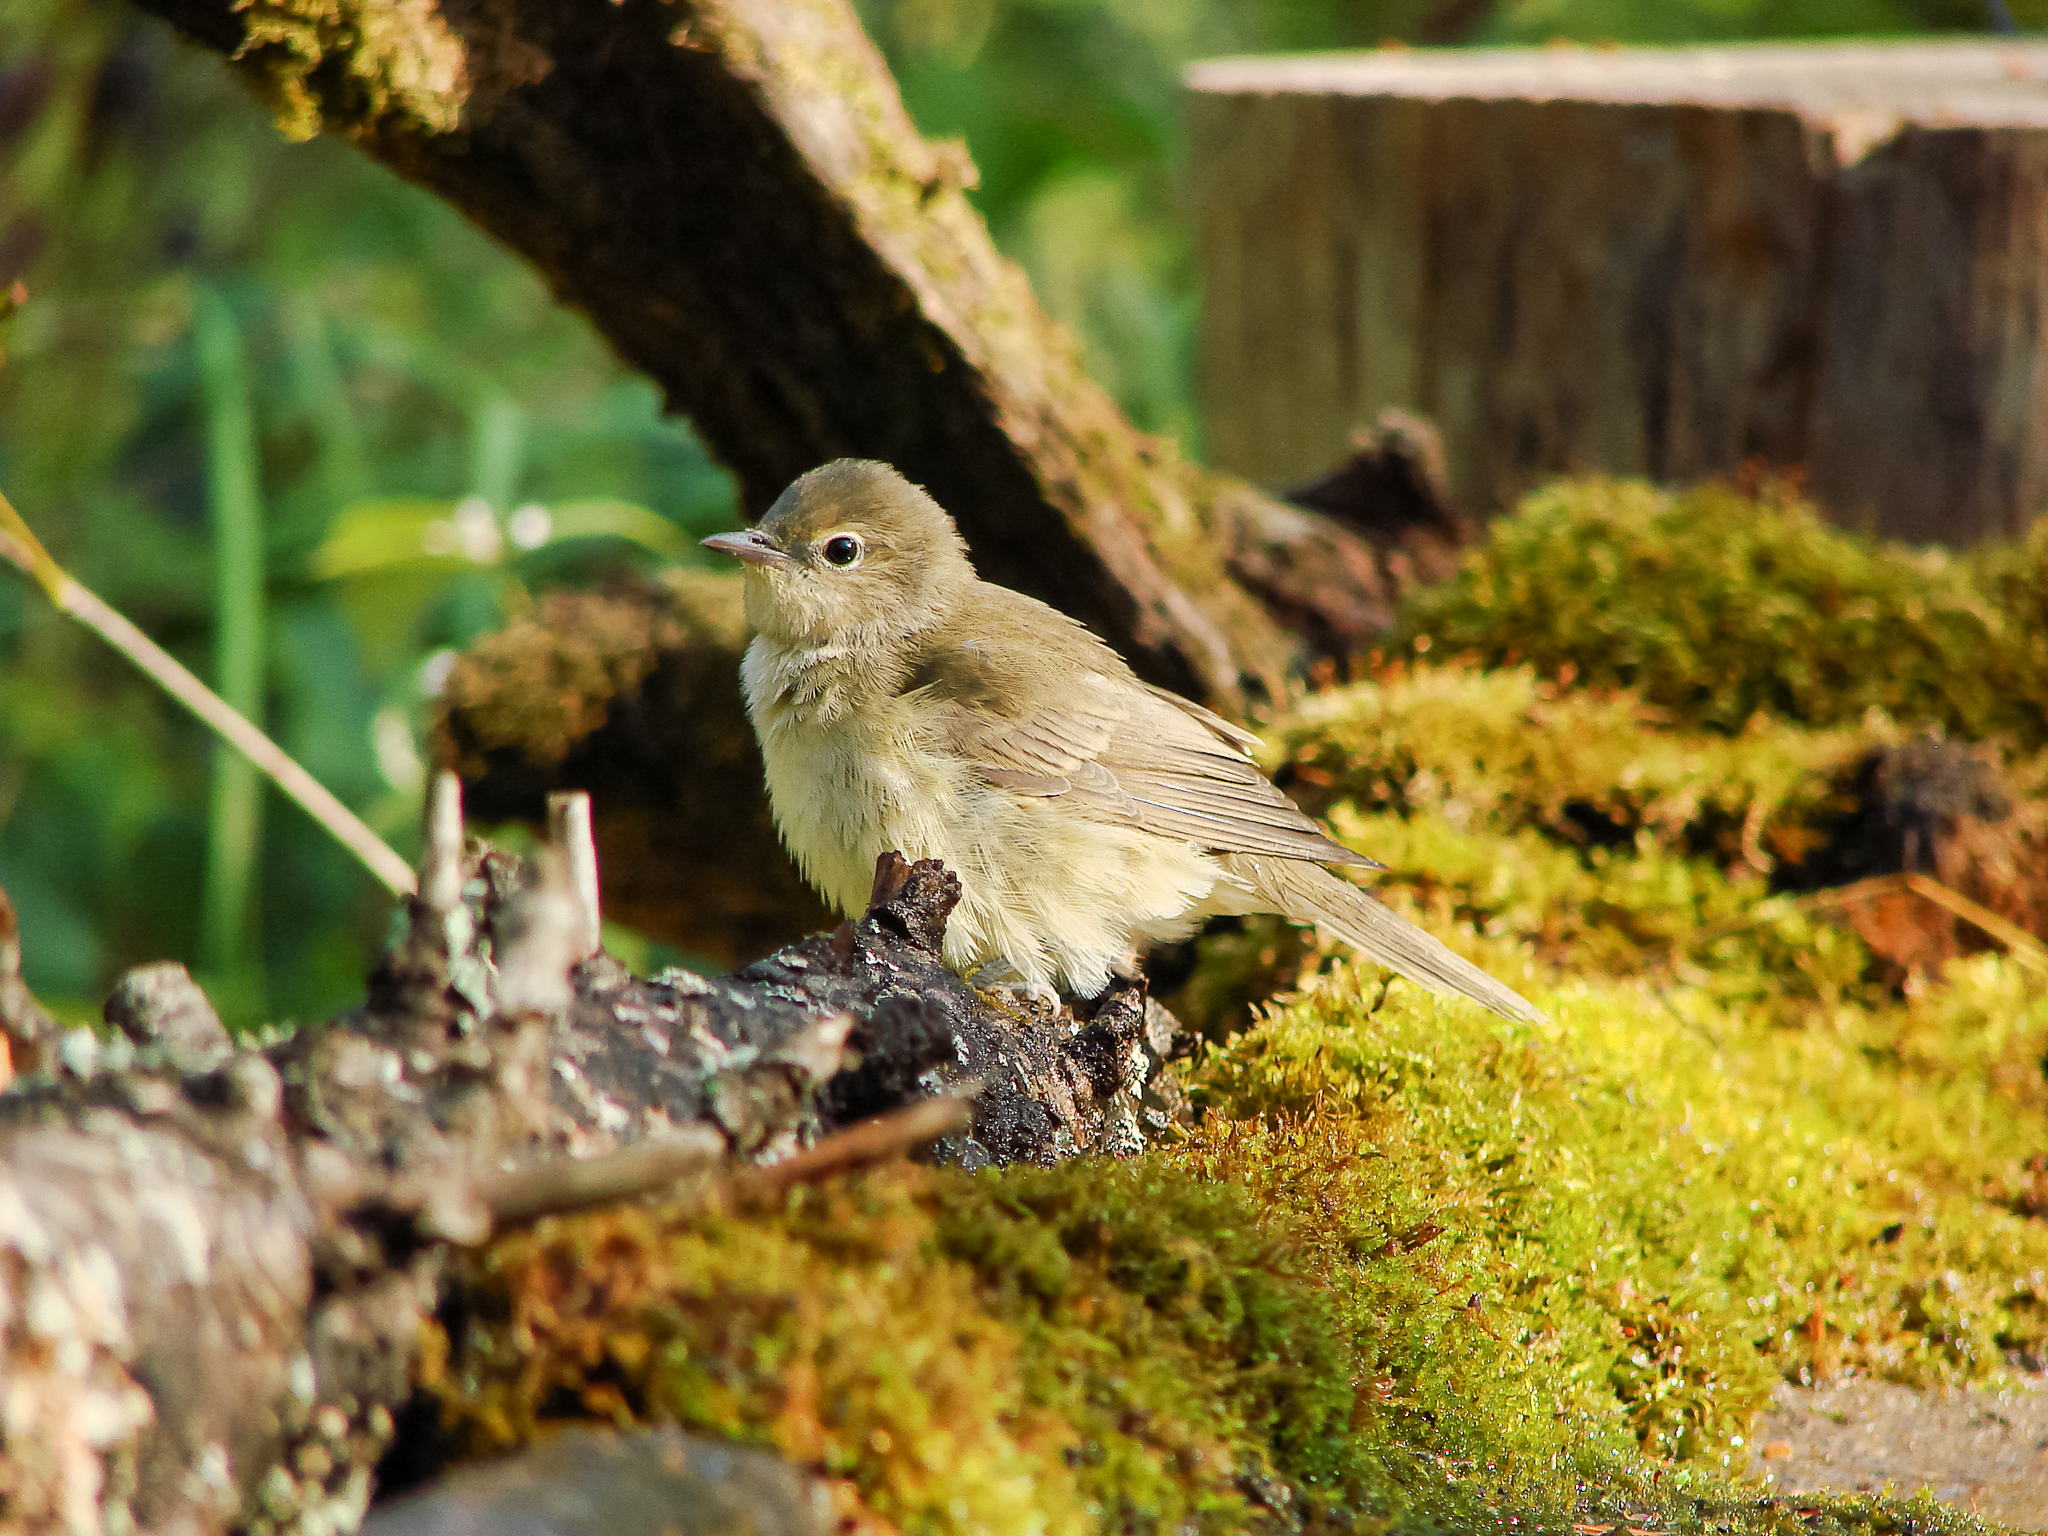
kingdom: Animalia
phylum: Chordata
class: Aves
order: Passeriformes
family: Sylviidae
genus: Sylvia
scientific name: Sylvia borin
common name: Garden warbler
